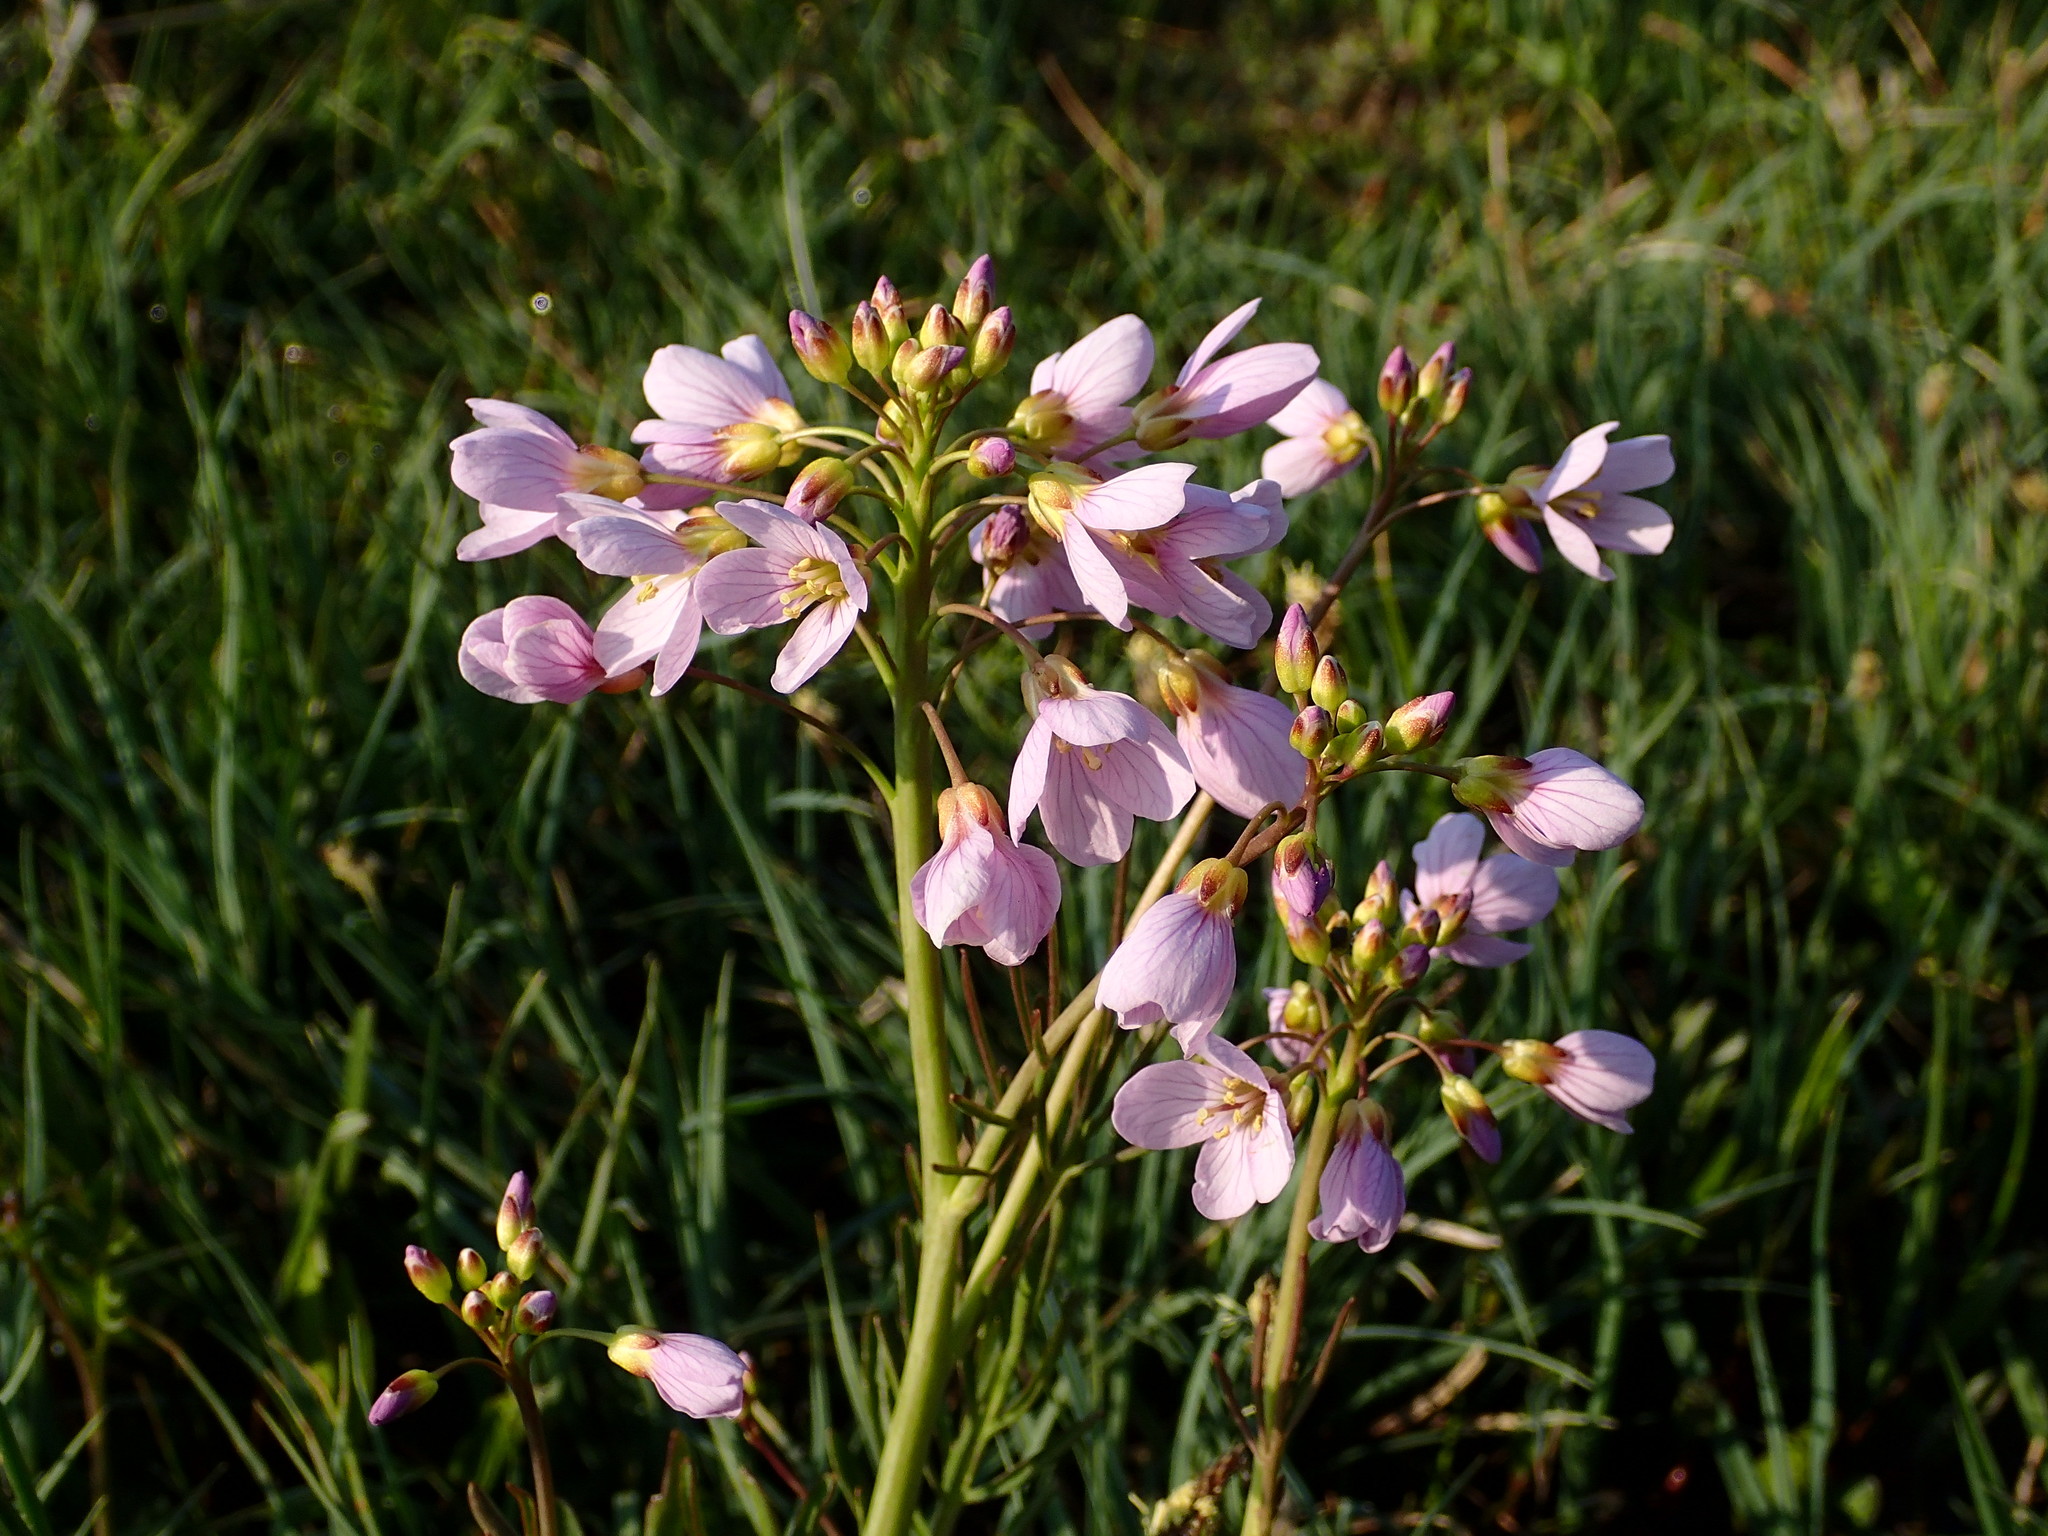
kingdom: Plantae
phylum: Tracheophyta
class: Magnoliopsida
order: Brassicales
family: Brassicaceae
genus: Cardamine
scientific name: Cardamine pratensis
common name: Cuckoo flower
